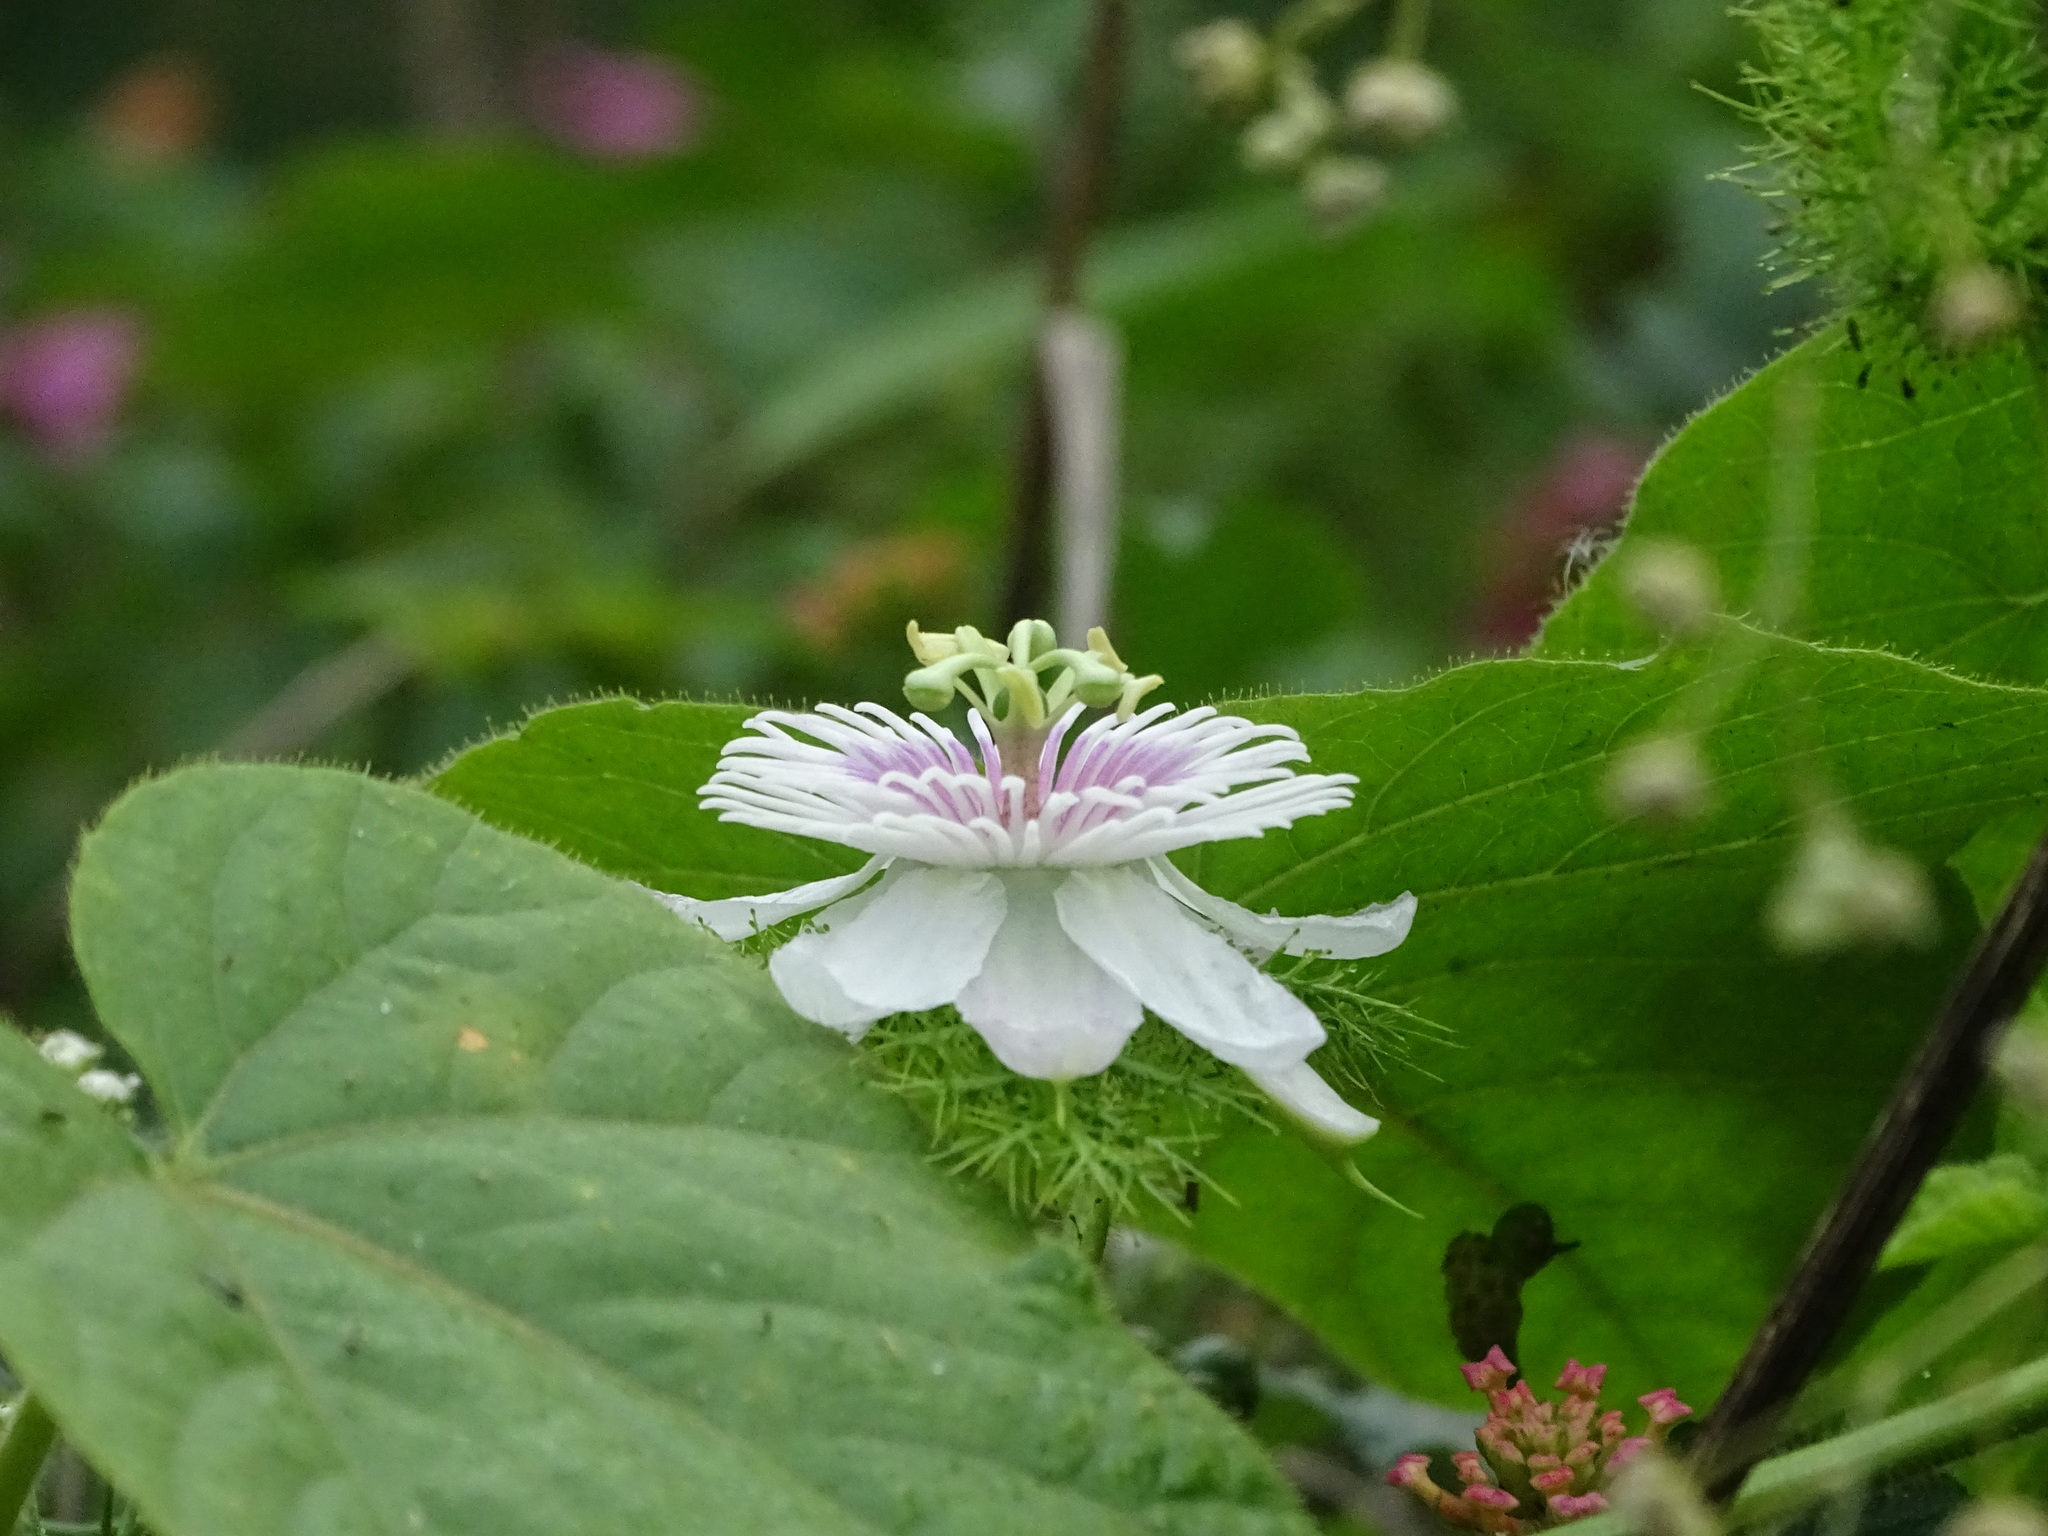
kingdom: Plantae
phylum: Tracheophyta
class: Magnoliopsida
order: Malpighiales
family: Passifloraceae
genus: Passiflora
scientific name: Passiflora foetida
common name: Fetid passionflower
